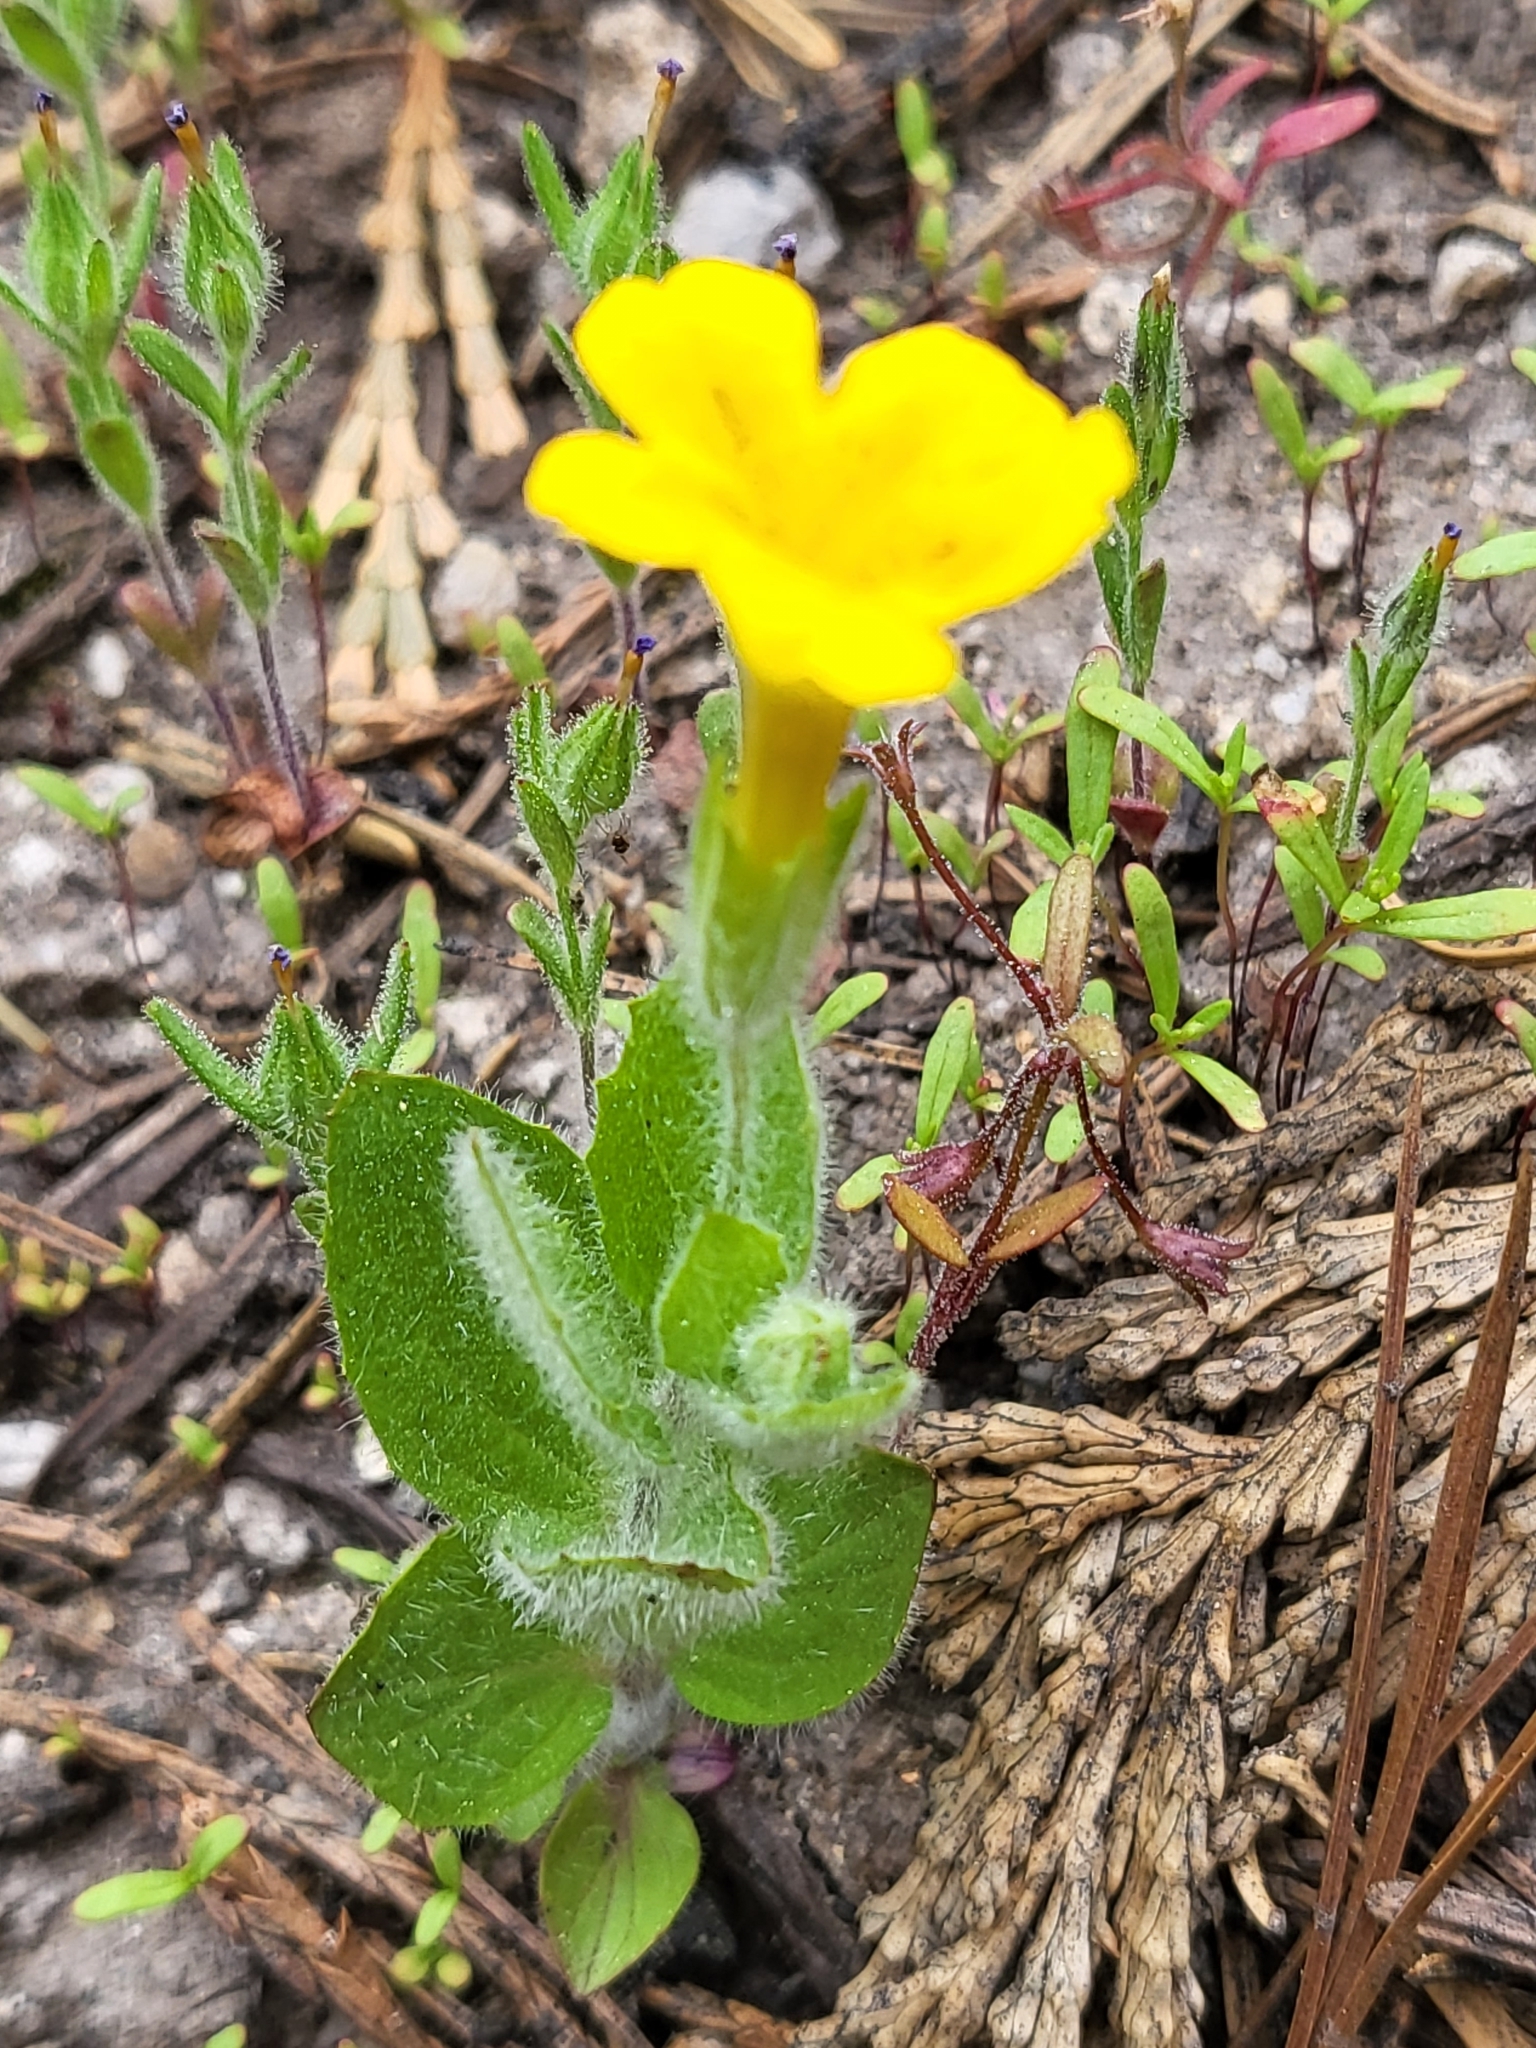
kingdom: Plantae
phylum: Tracheophyta
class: Magnoliopsida
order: Lamiales
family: Phrymaceae
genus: Erythranthe
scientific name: Erythranthe moschata
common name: Muskflower
